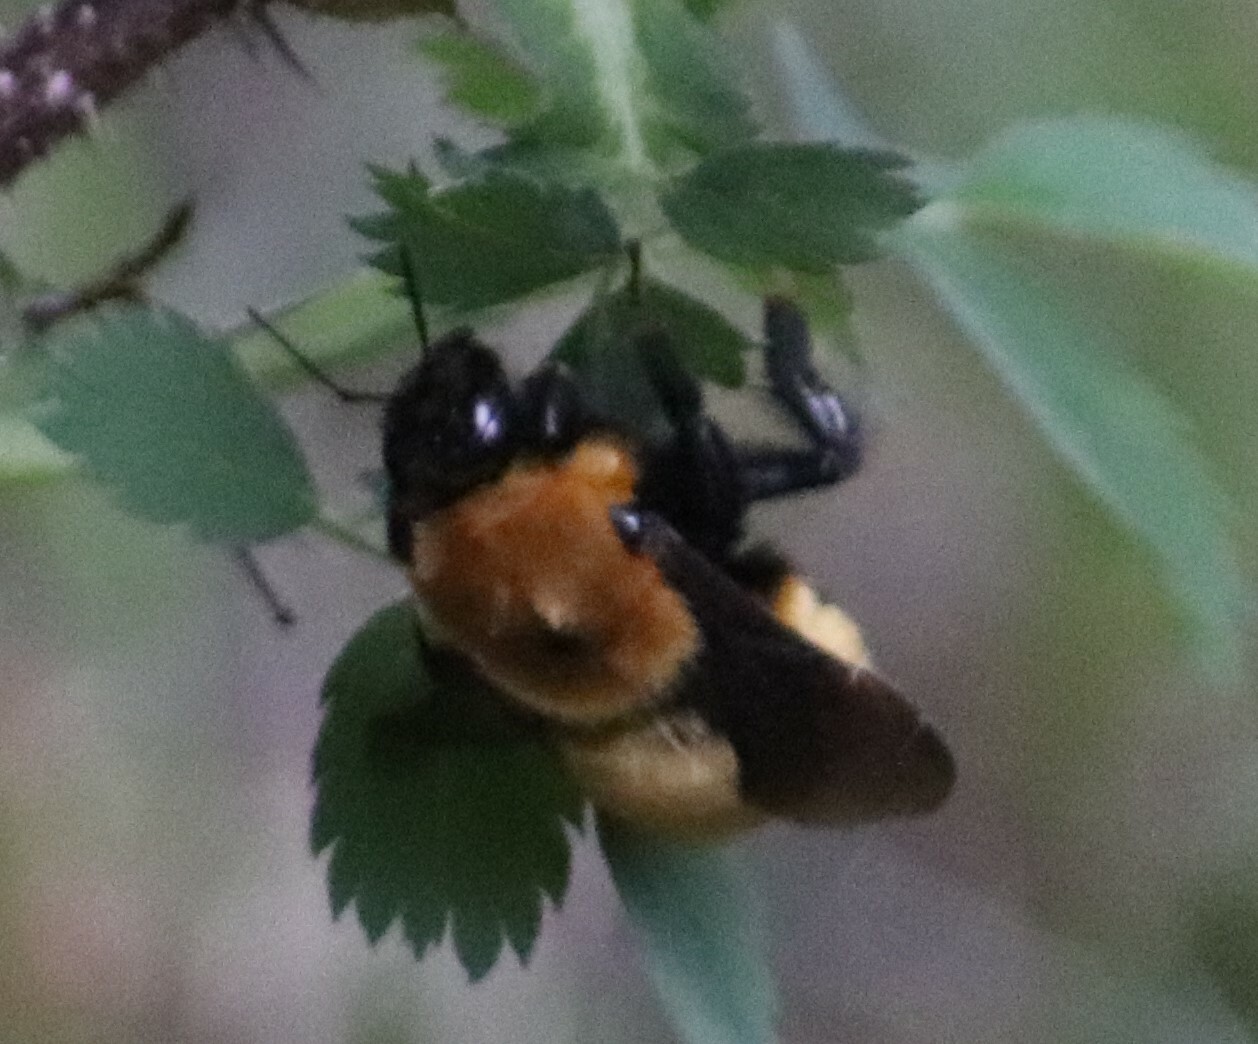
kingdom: Animalia
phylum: Arthropoda
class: Insecta
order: Hymenoptera
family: Apidae
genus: Bombus
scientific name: Bombus nevadensis
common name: Nevada bumble bee
